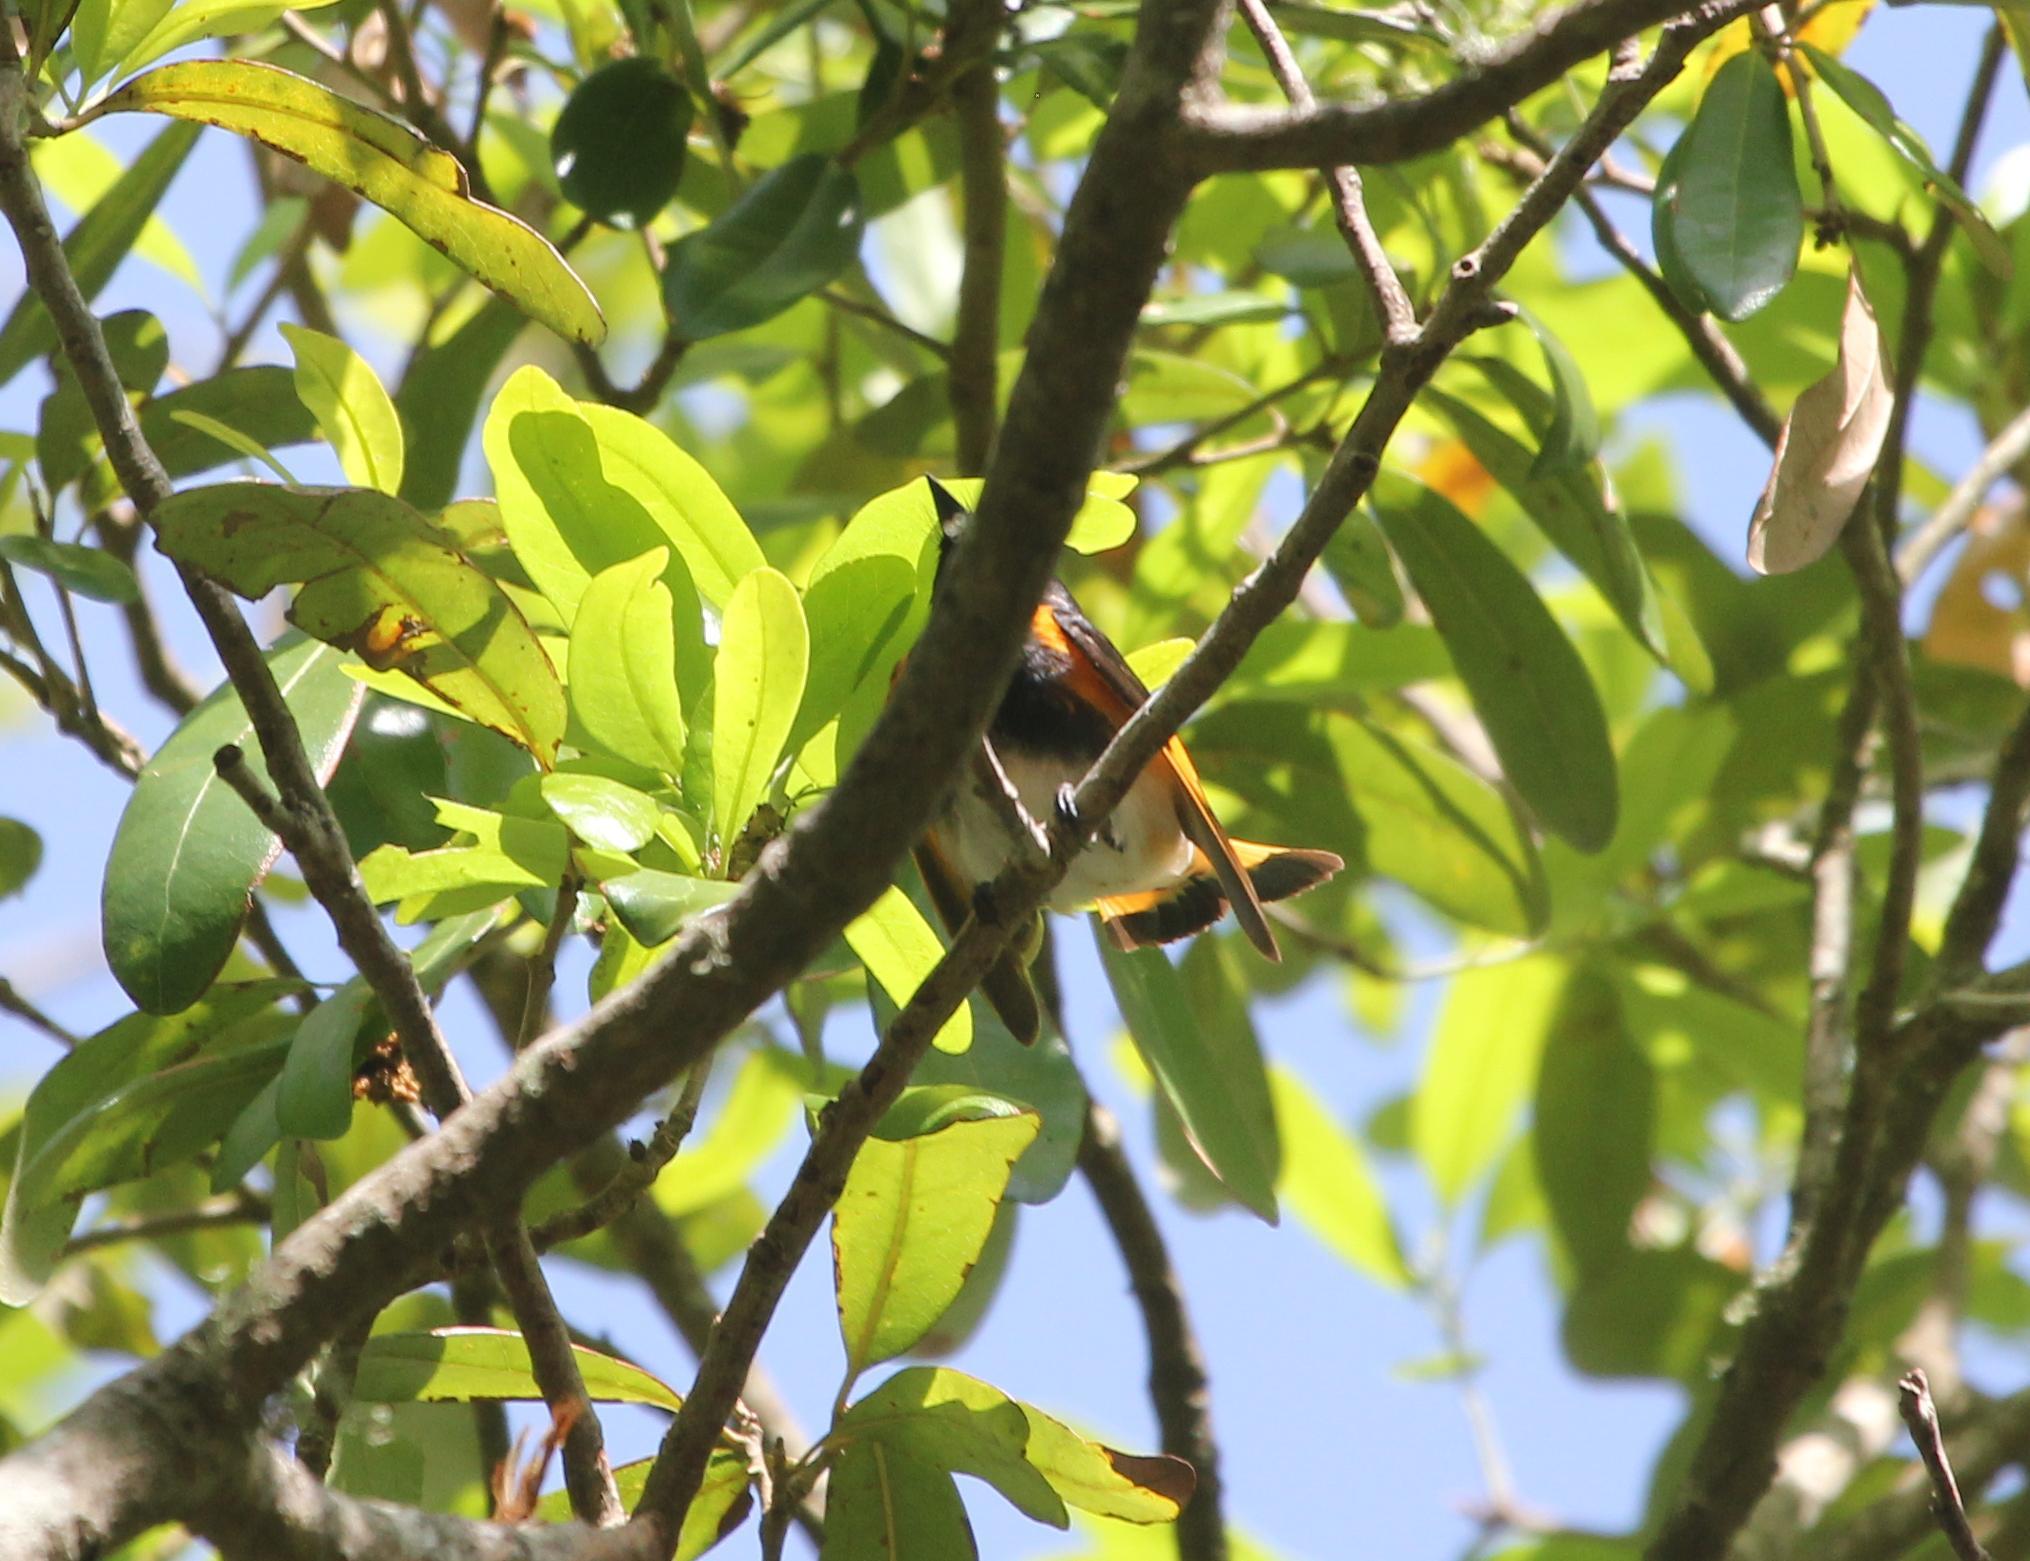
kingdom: Animalia
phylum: Chordata
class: Aves
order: Passeriformes
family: Parulidae
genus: Setophaga
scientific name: Setophaga ruticilla
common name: American redstart
